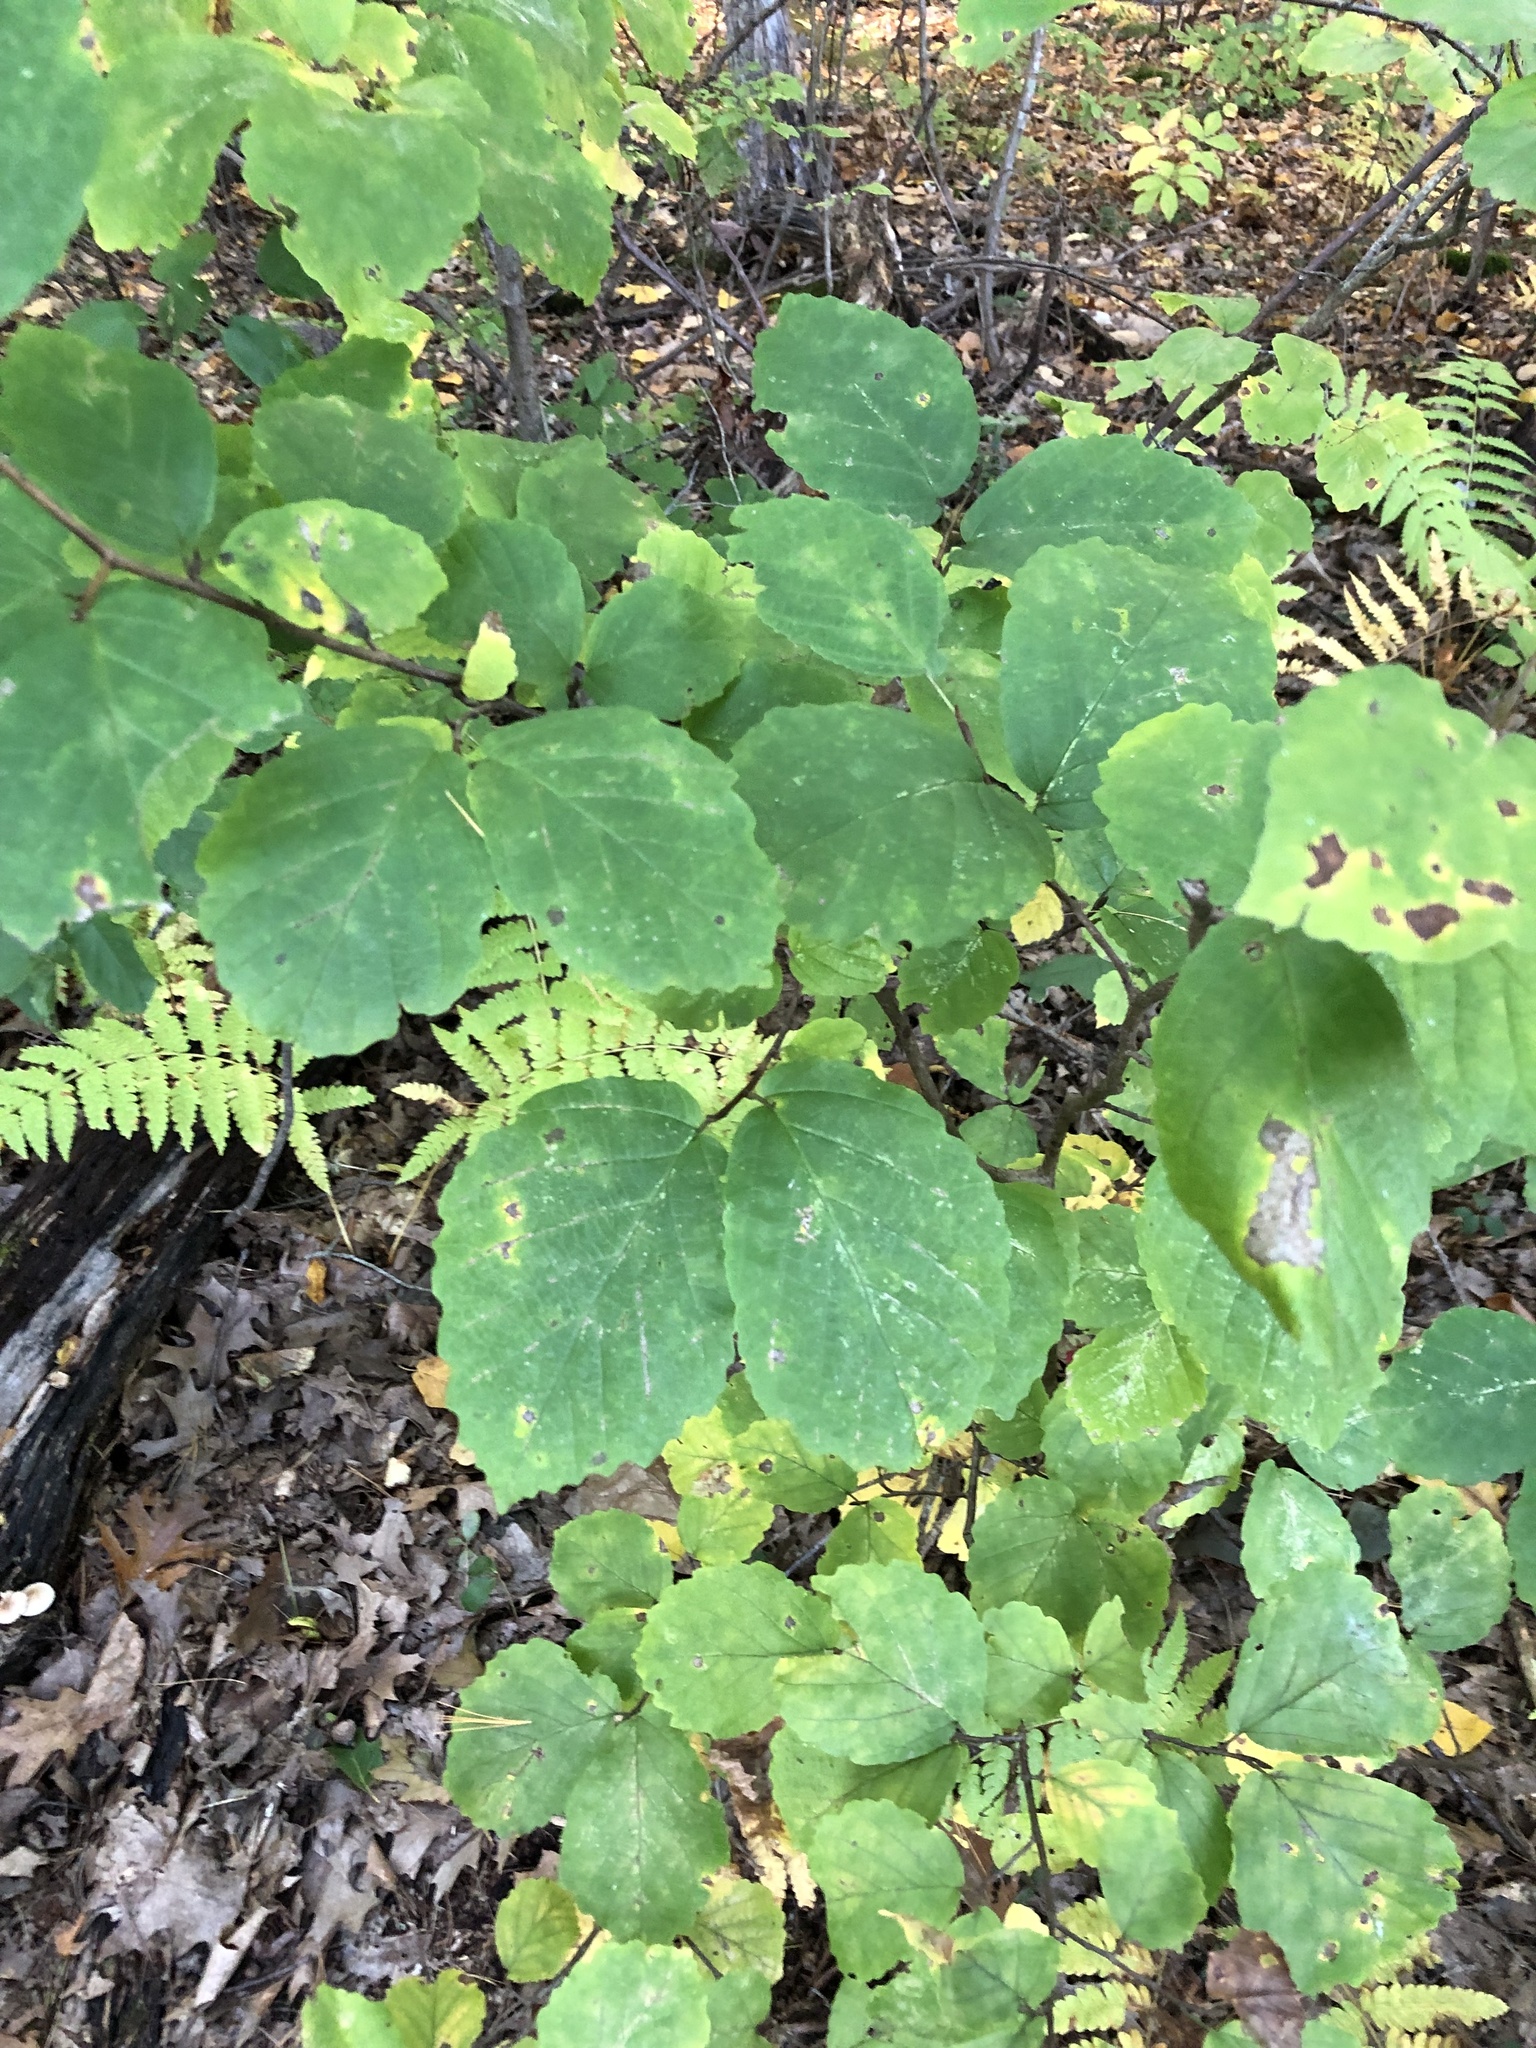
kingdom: Plantae
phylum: Tracheophyta
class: Magnoliopsida
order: Saxifragales
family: Hamamelidaceae
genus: Hamamelis
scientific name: Hamamelis virginiana
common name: Witch-hazel
